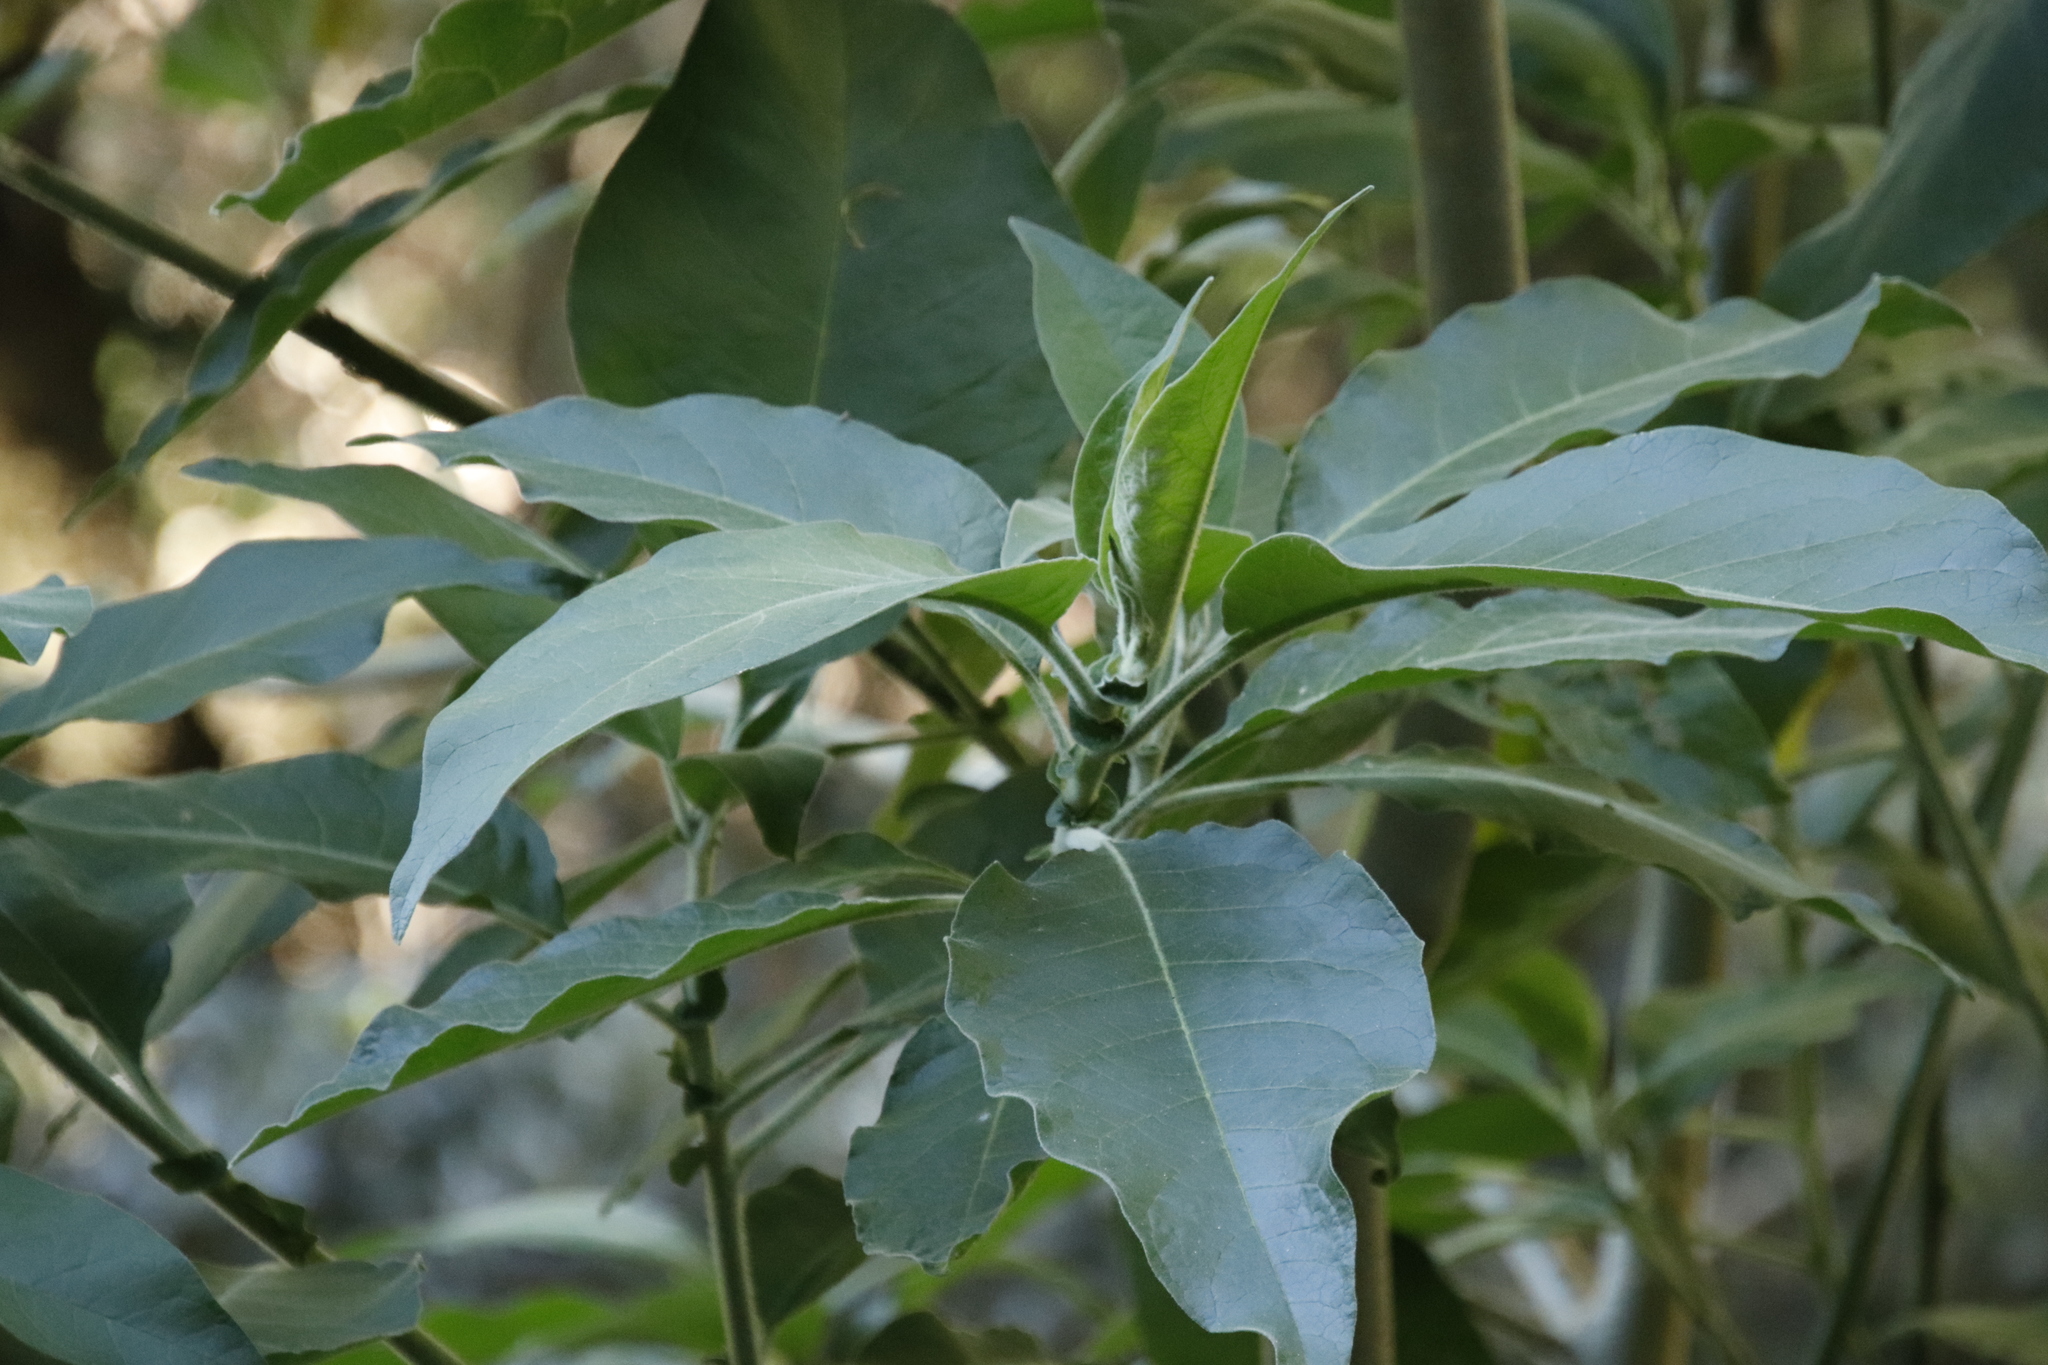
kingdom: Plantae
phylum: Tracheophyta
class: Magnoliopsida
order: Solanales
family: Solanaceae
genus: Solanum
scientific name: Solanum mauritianum
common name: Earleaf nightshade
